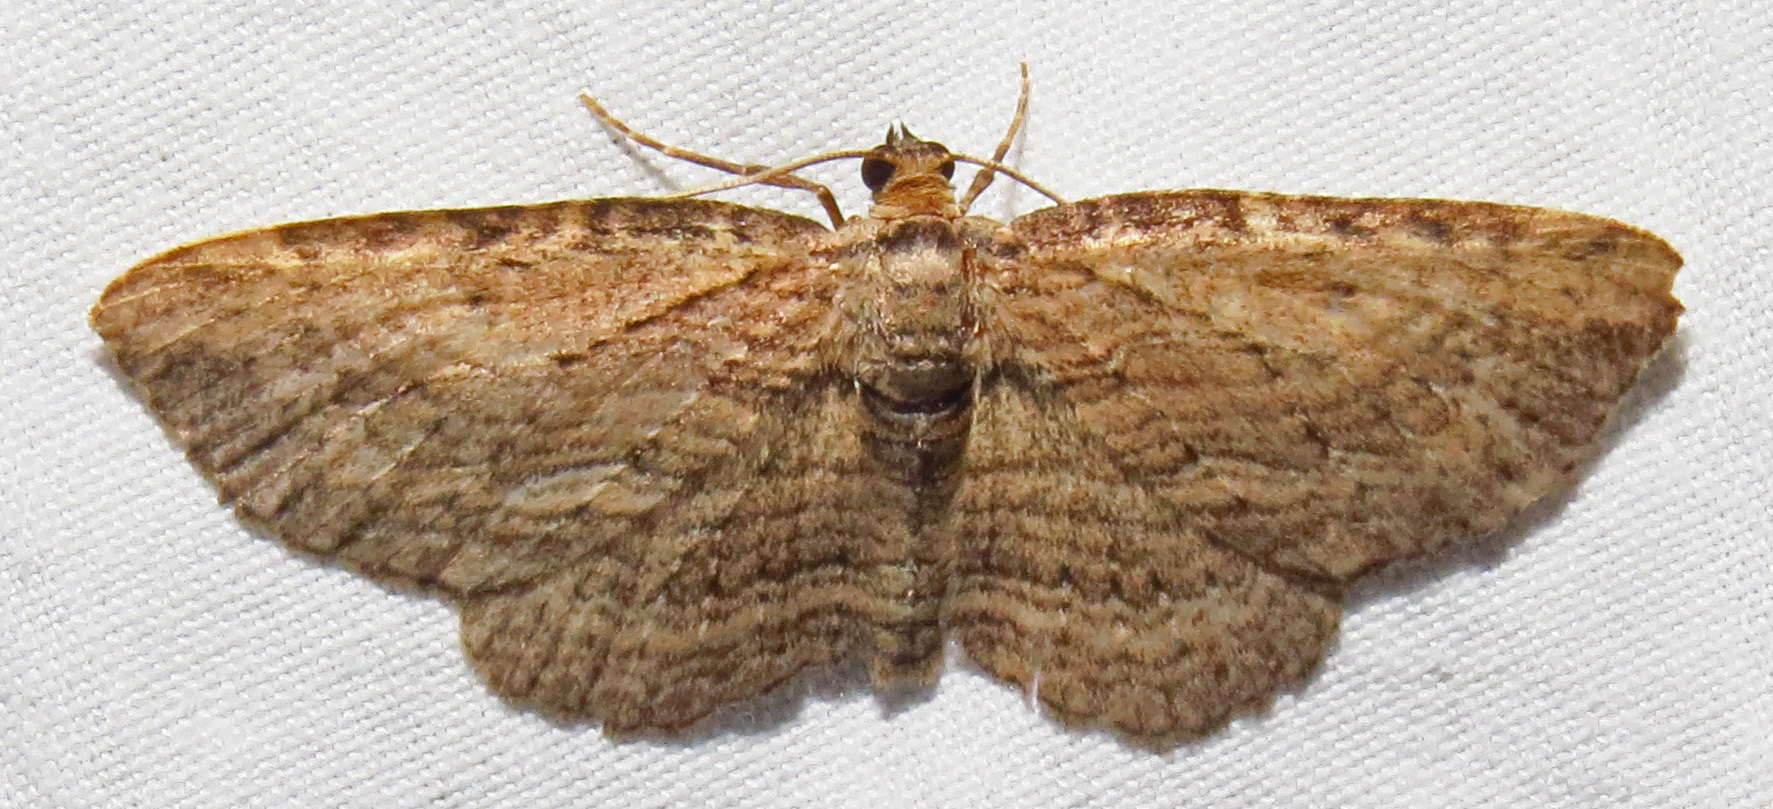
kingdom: Animalia
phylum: Arthropoda
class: Insecta
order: Lepidoptera
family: Geometridae
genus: Horisme
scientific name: Horisme intestinata
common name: Brown bark carpet
